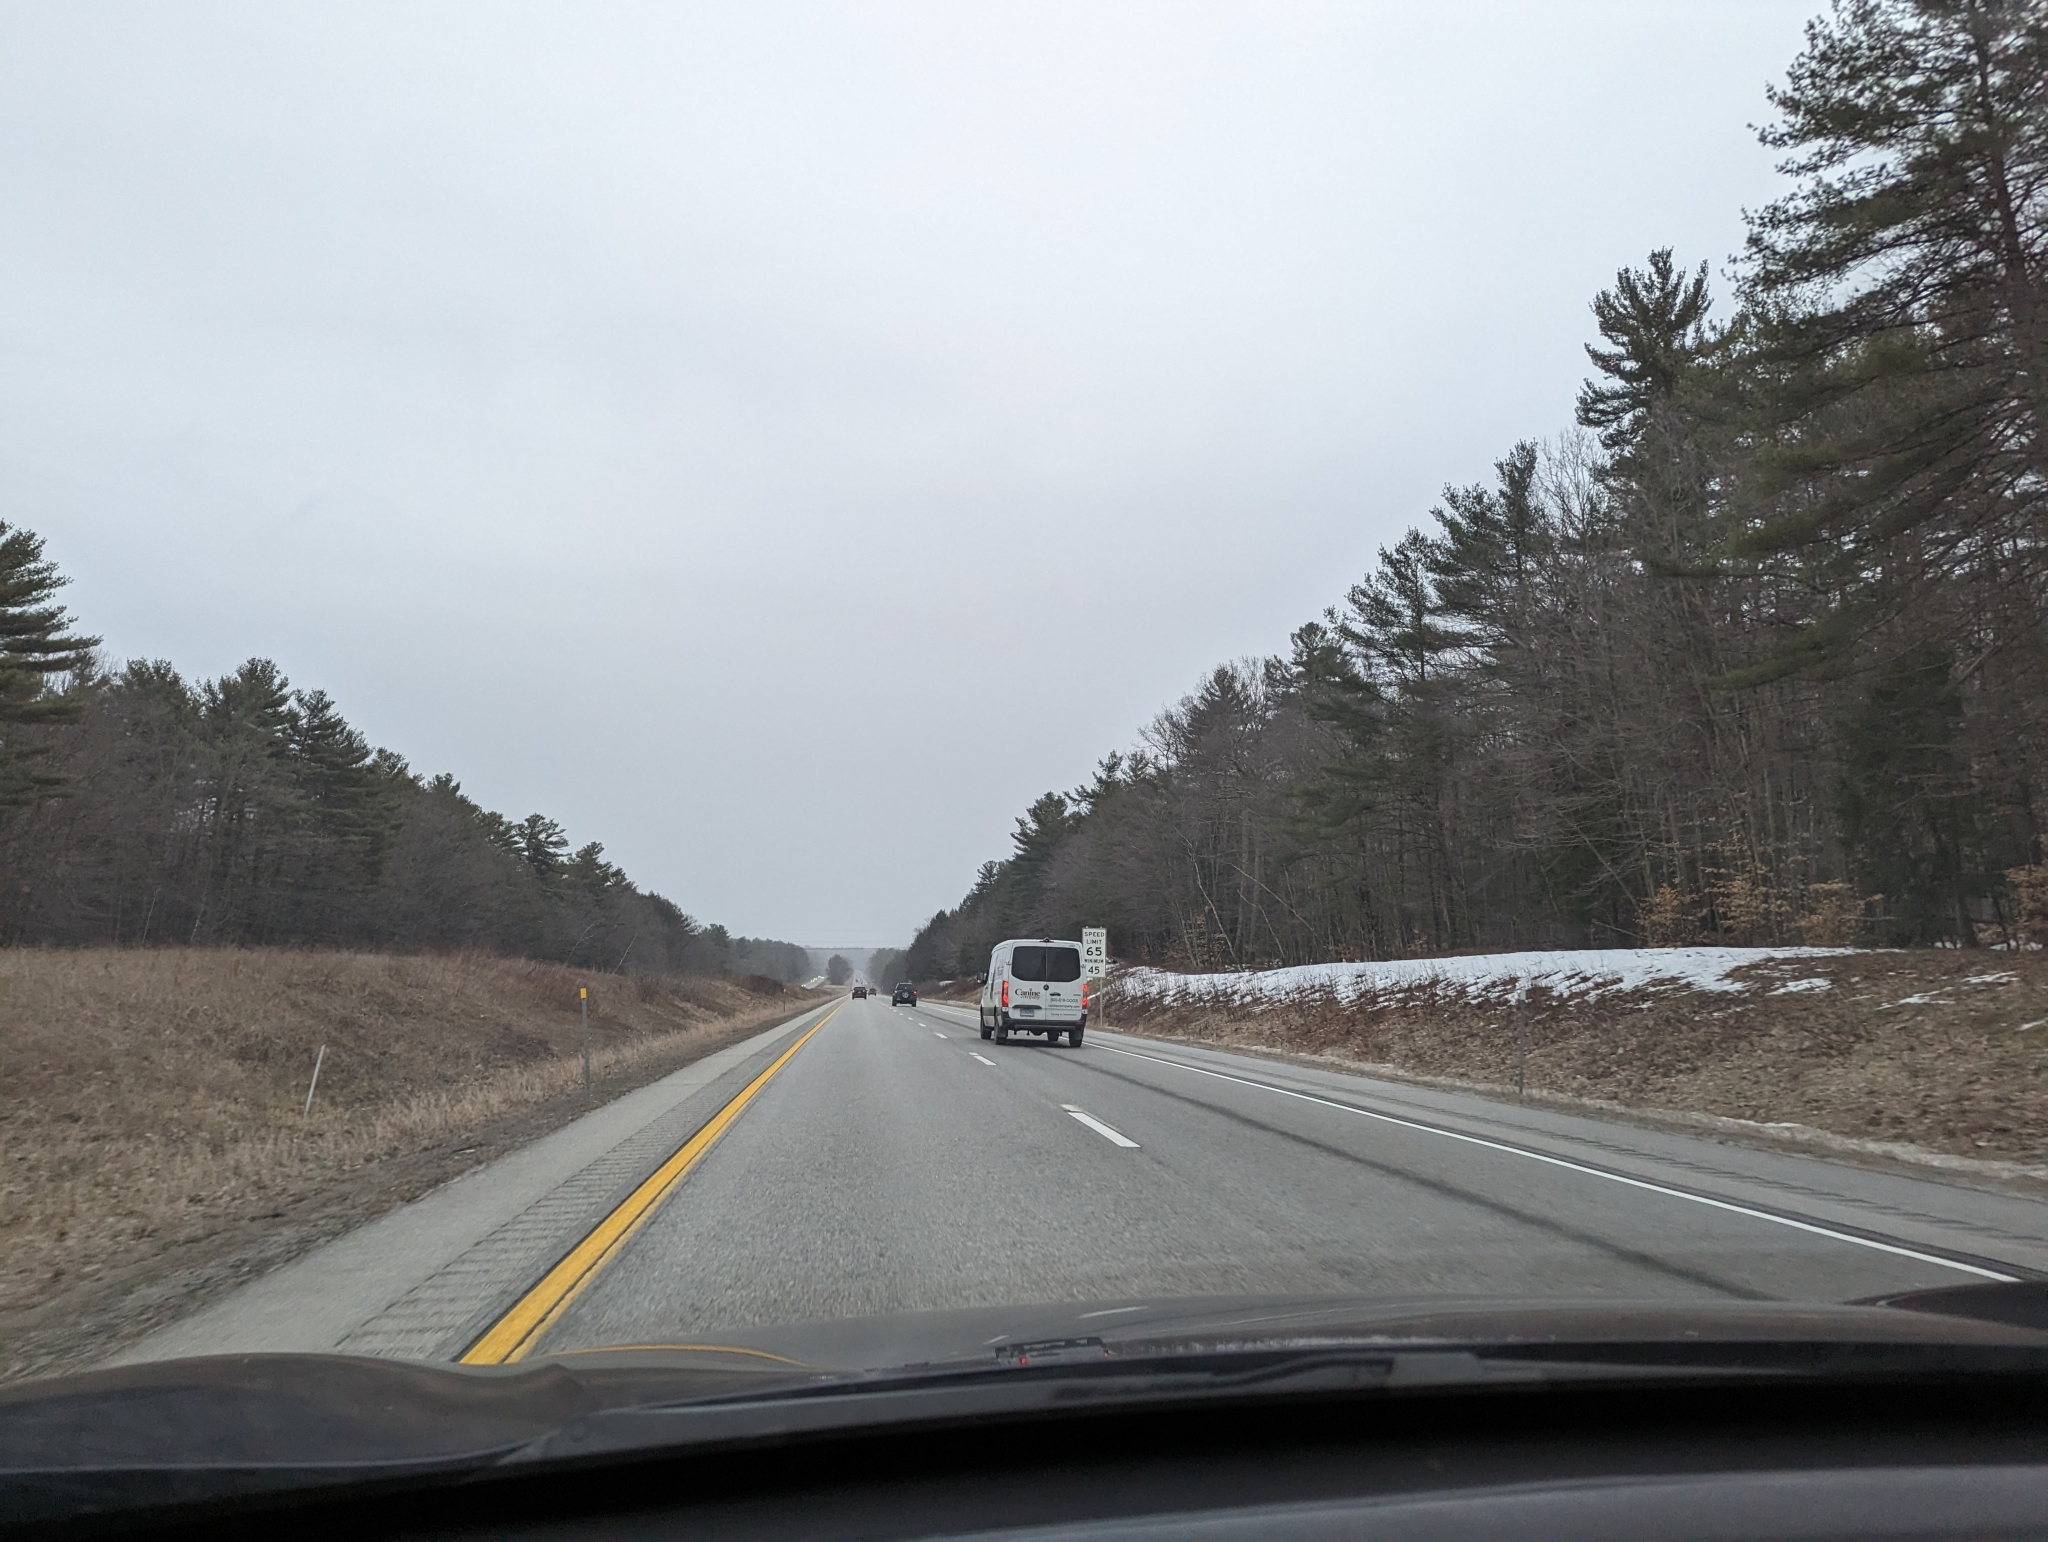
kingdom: Plantae
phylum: Tracheophyta
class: Pinopsida
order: Pinales
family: Pinaceae
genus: Pinus
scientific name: Pinus strobus
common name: Weymouth pine
